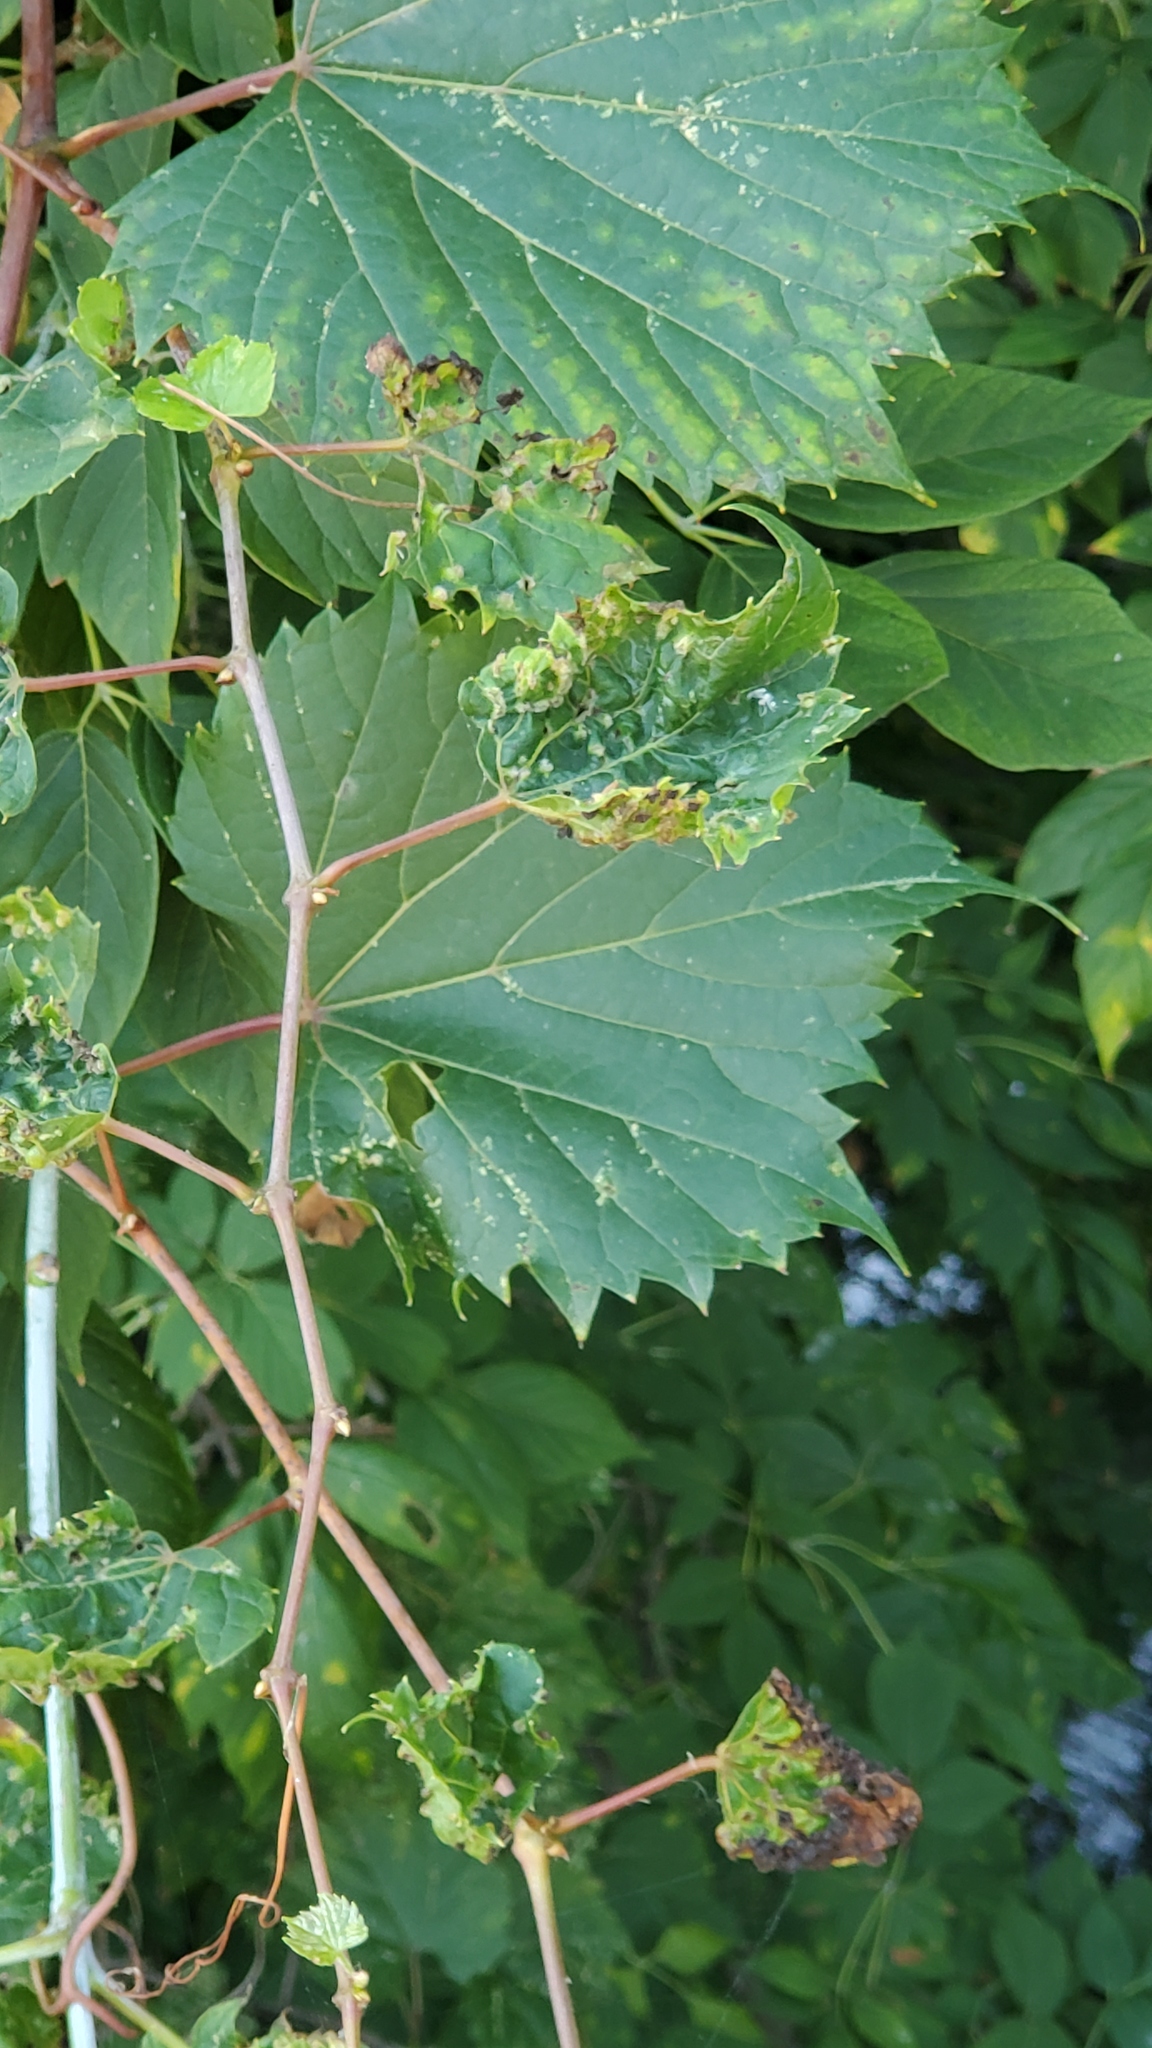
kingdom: Plantae
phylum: Tracheophyta
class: Magnoliopsida
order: Vitales
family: Vitaceae
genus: Vitis
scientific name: Vitis riparia
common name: Frost grape
